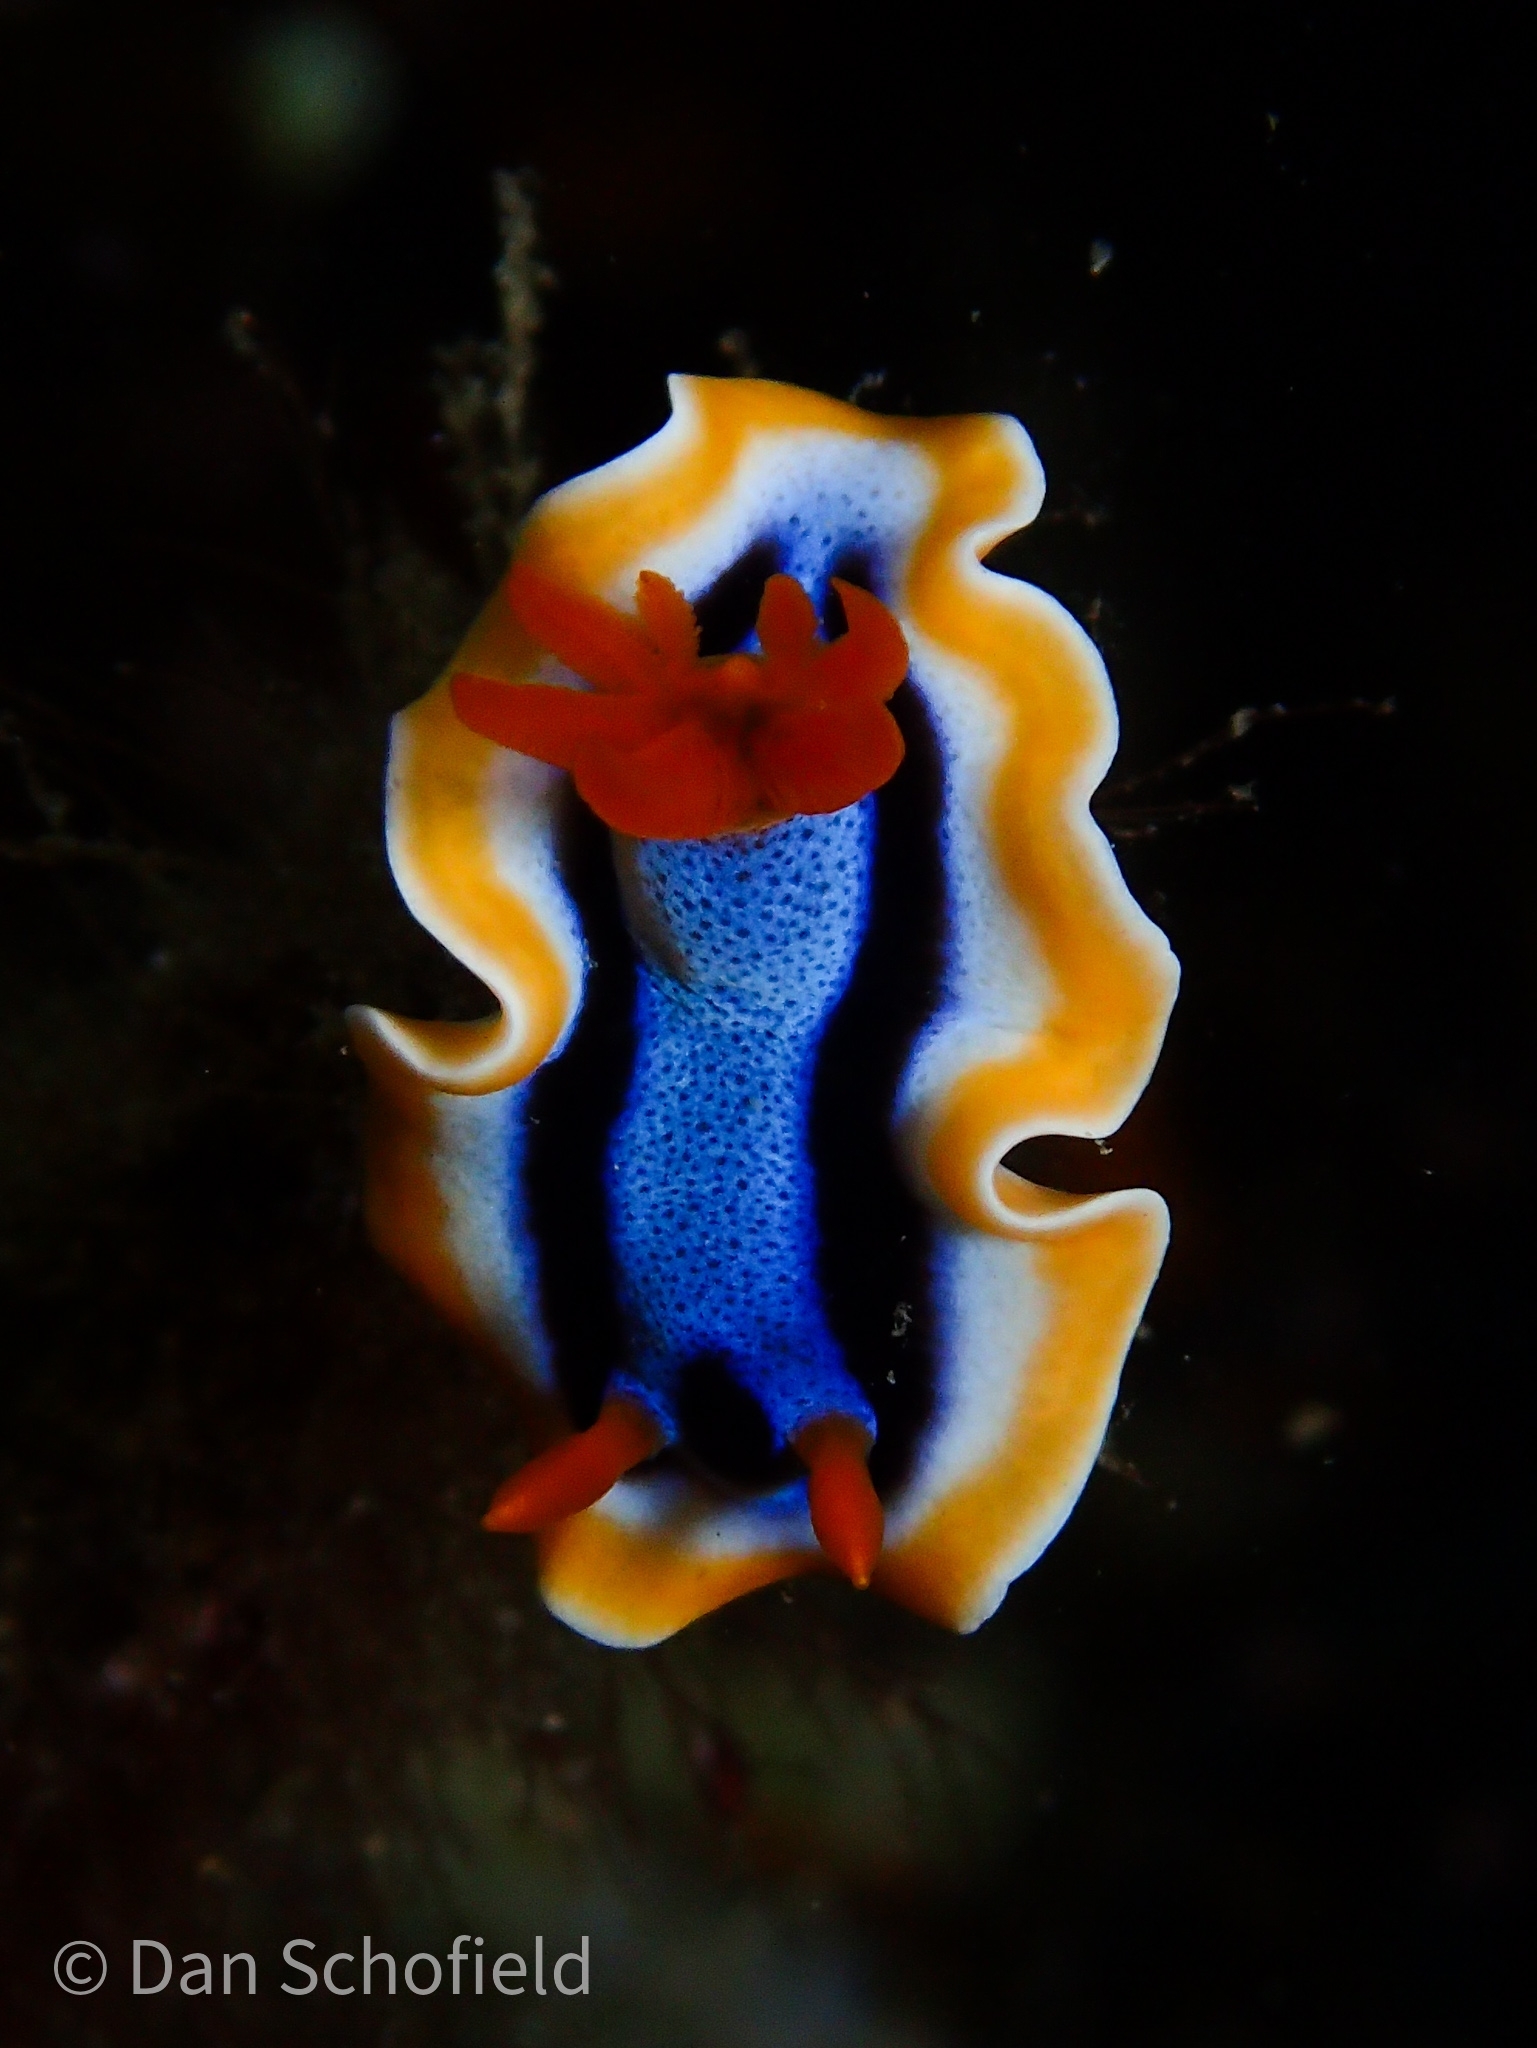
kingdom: Animalia
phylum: Mollusca
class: Gastropoda
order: Nudibranchia
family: Chromodorididae
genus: Chromodoris
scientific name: Chromodoris annae
